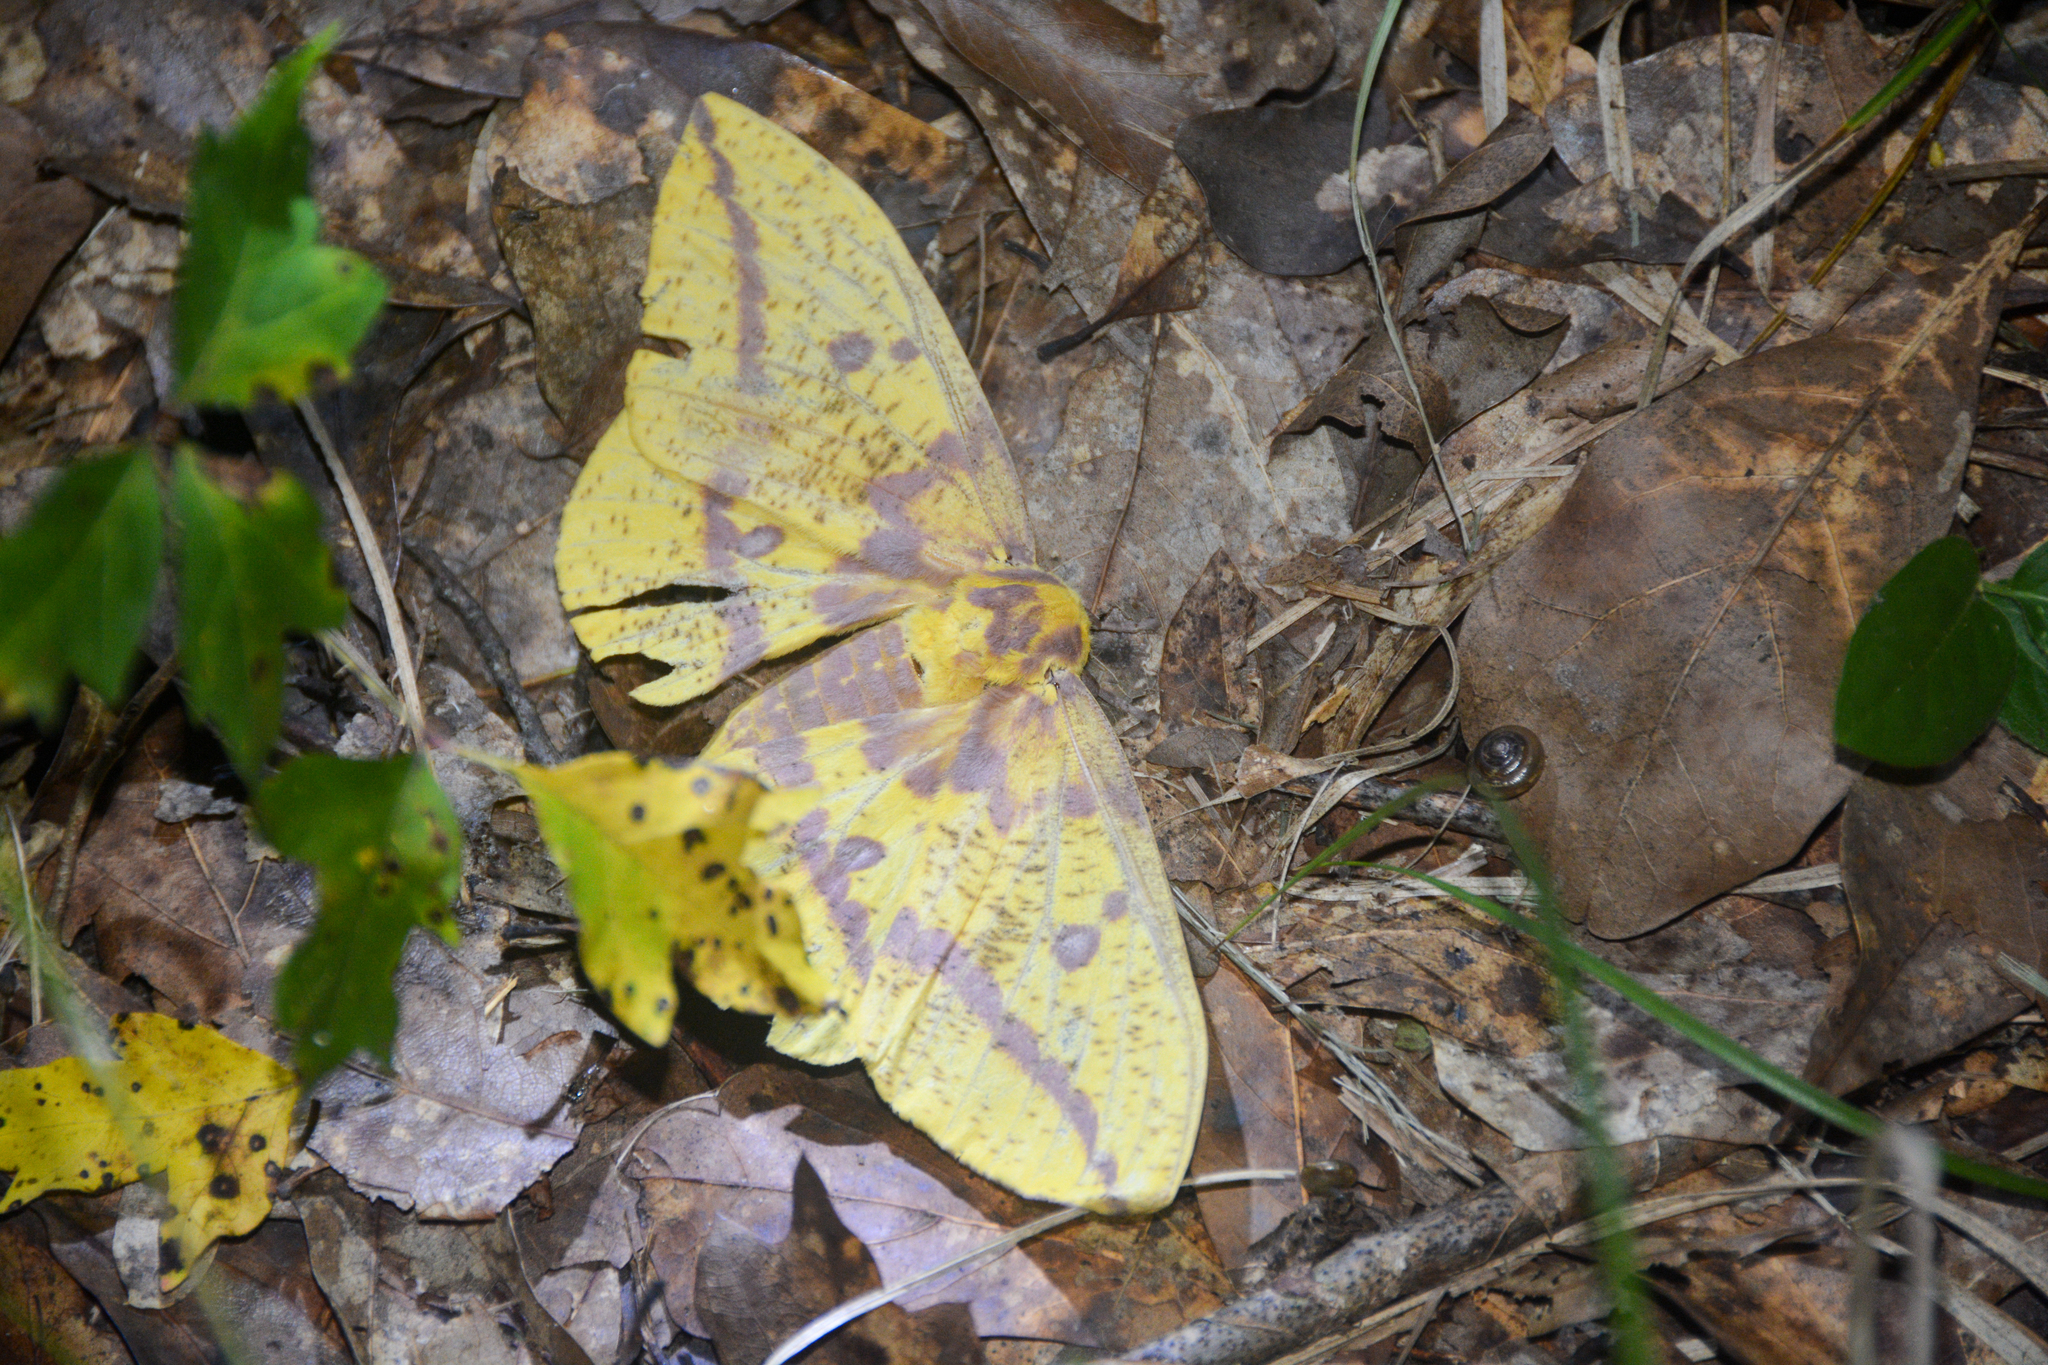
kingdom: Animalia
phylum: Arthropoda
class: Insecta
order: Lepidoptera
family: Saturniidae
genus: Eacles
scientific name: Eacles imperialis
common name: Imperial moth
